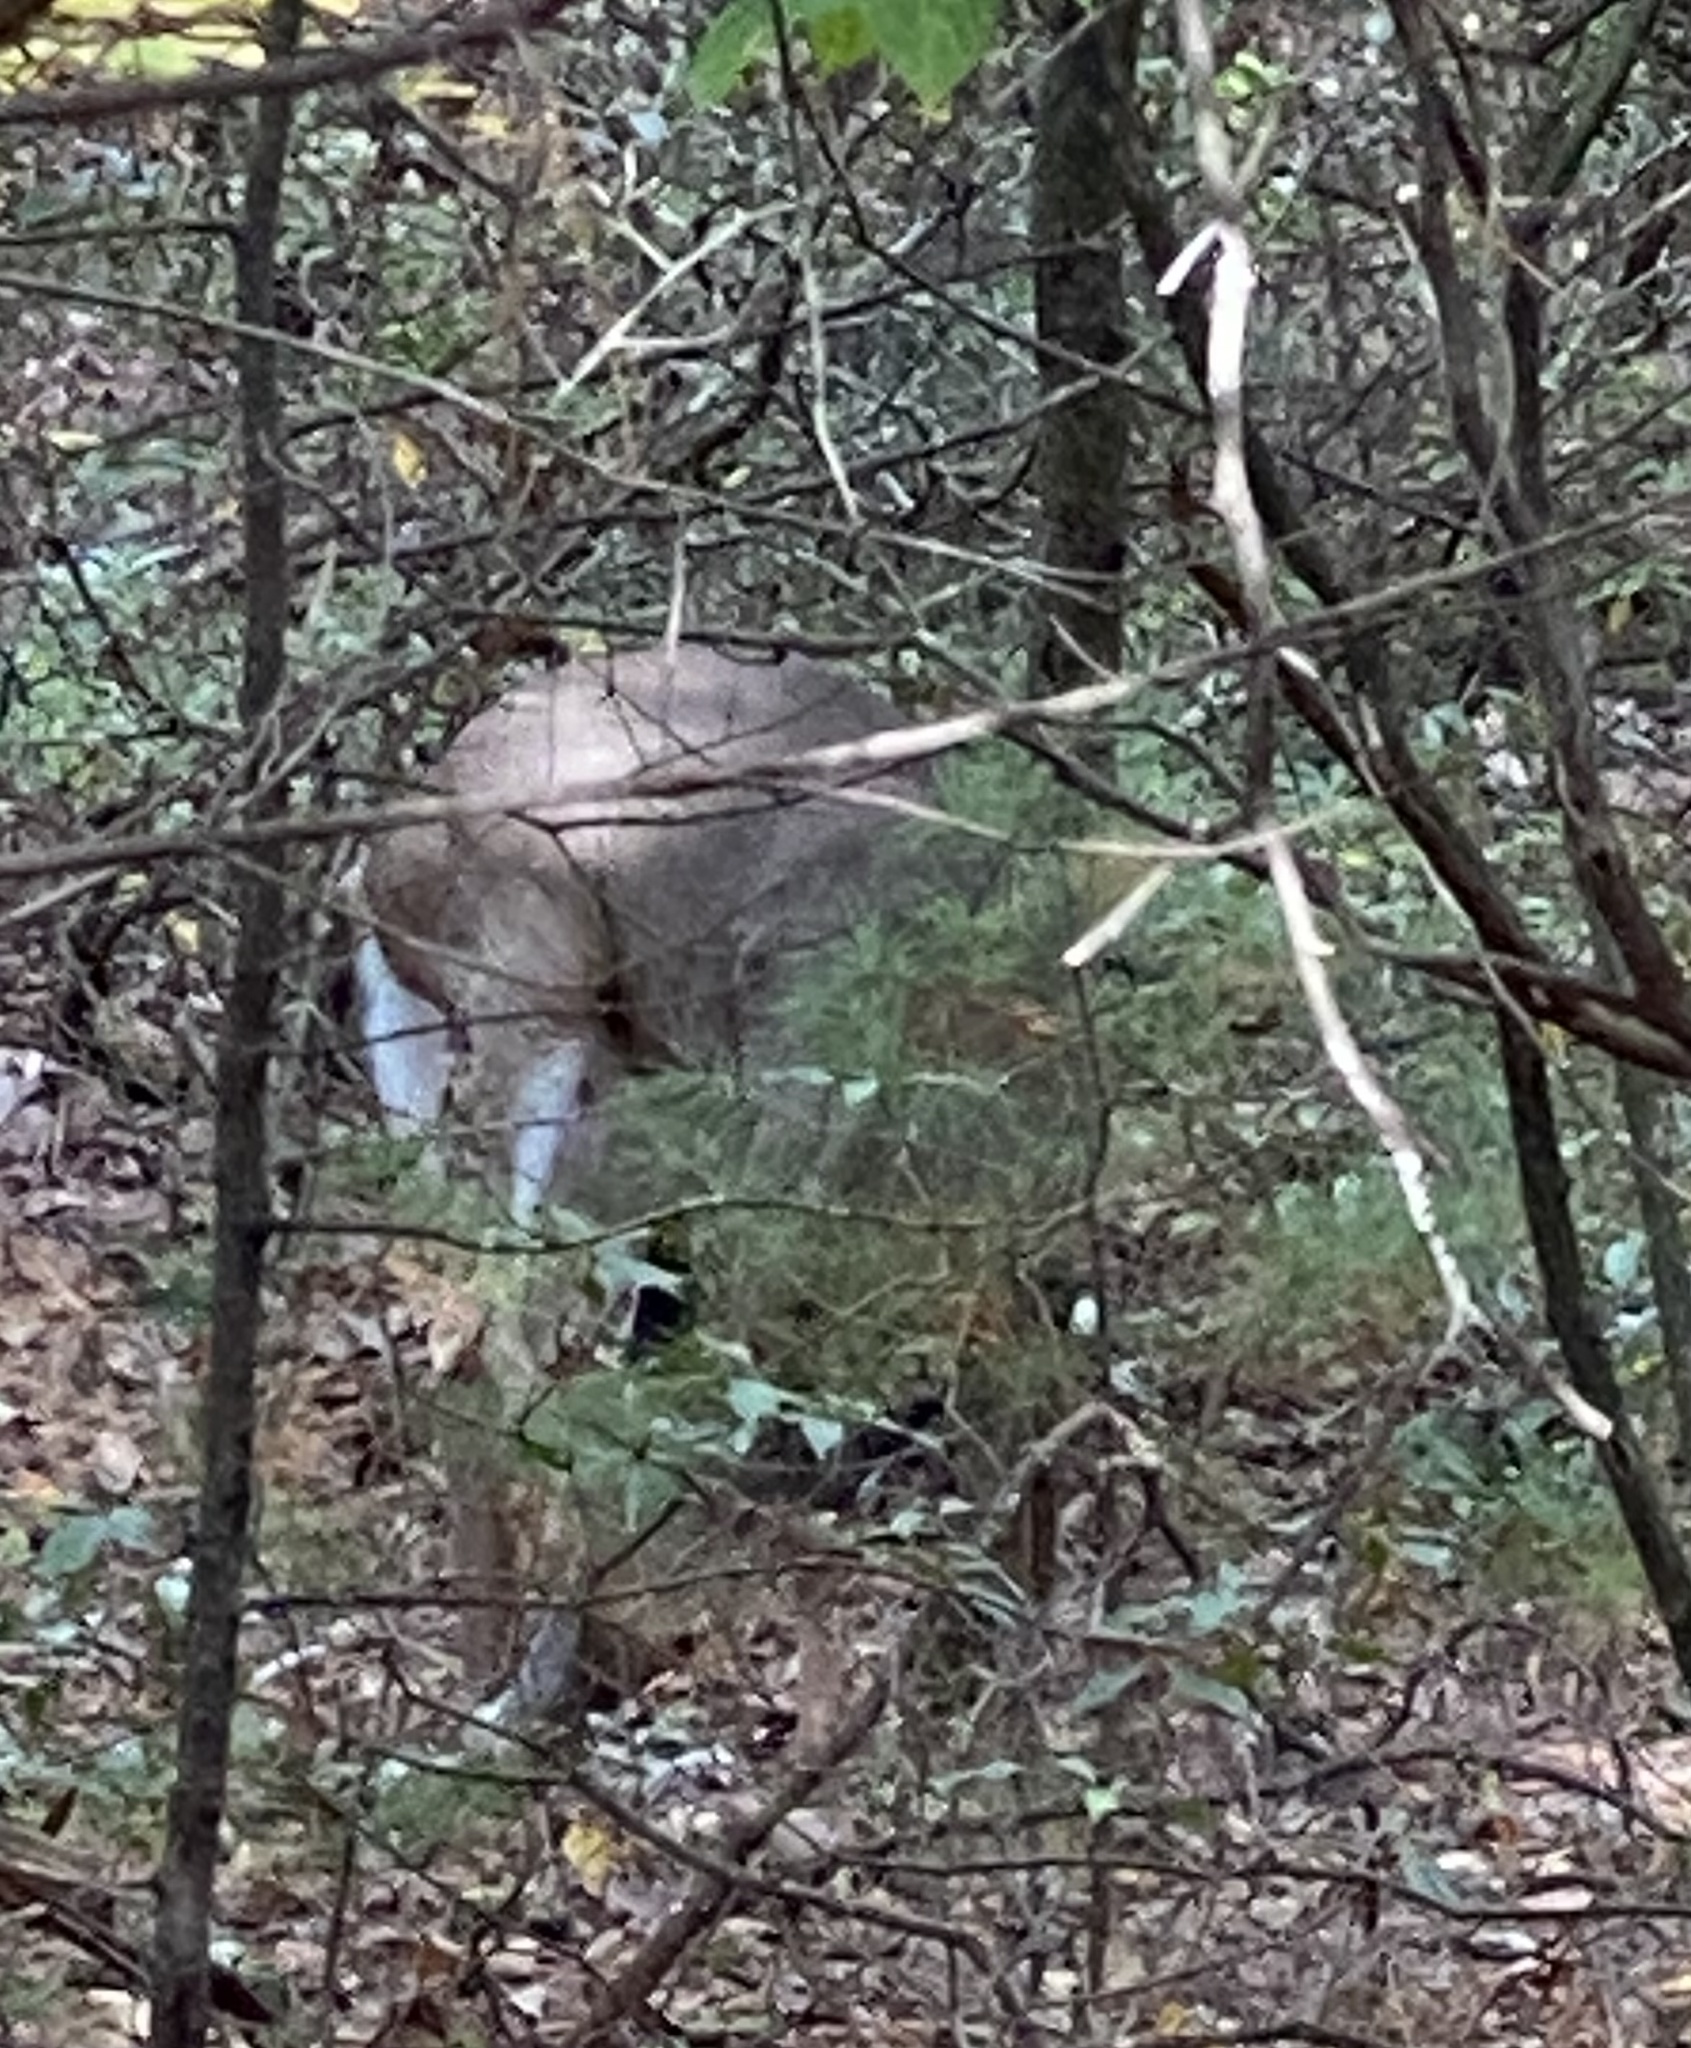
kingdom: Animalia
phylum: Chordata
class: Mammalia
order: Artiodactyla
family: Cervidae
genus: Odocoileus
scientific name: Odocoileus virginianus
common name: White-tailed deer
